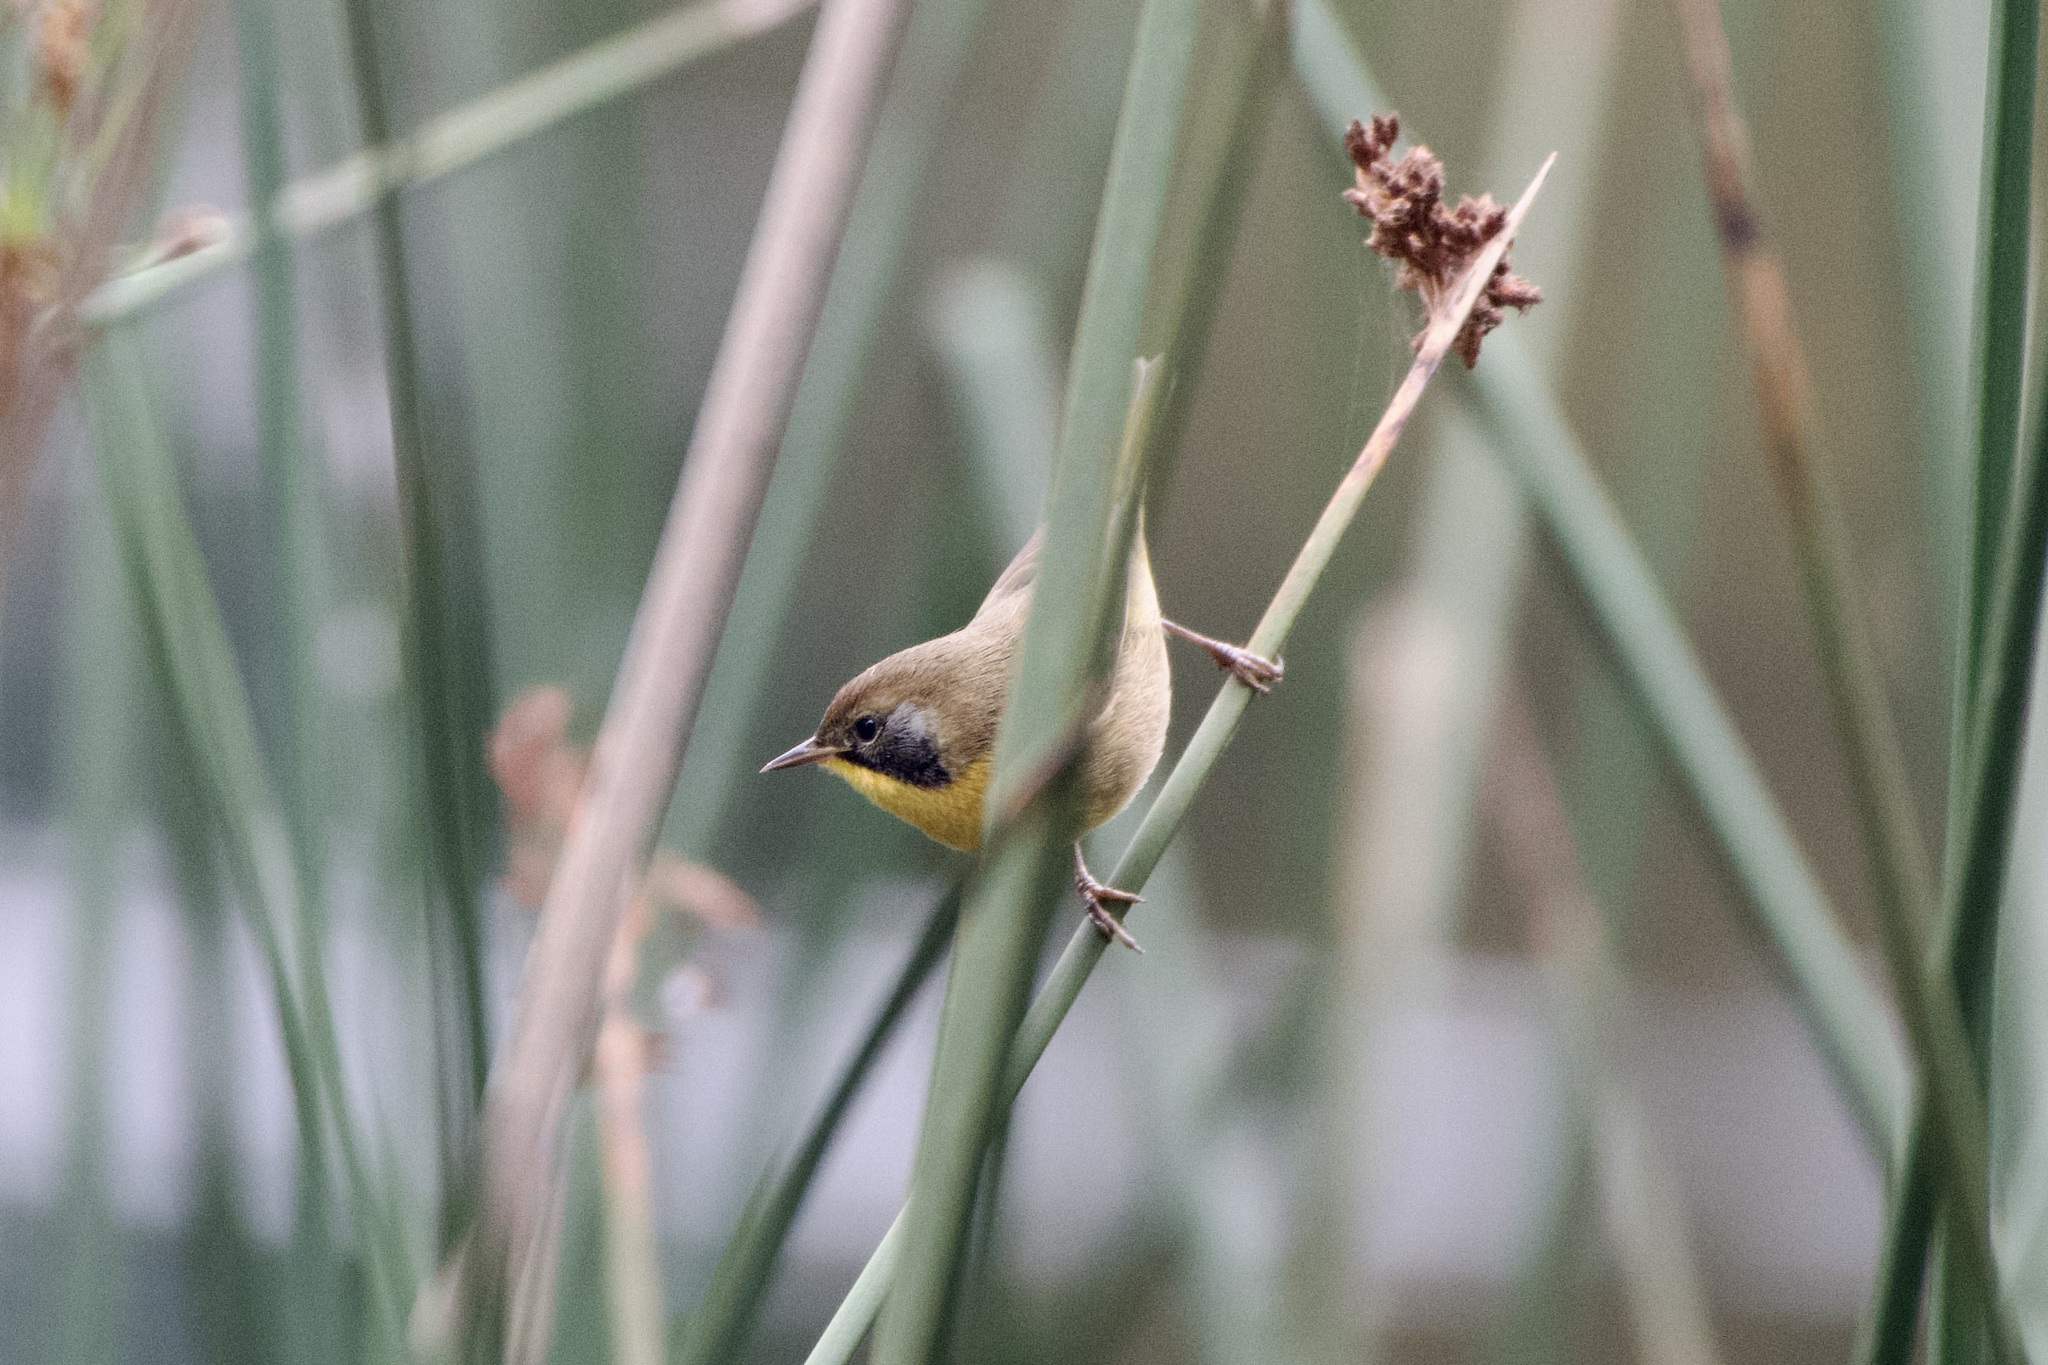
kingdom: Animalia
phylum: Chordata
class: Aves
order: Passeriformes
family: Parulidae
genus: Geothlypis
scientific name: Geothlypis trichas
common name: Common yellowthroat
